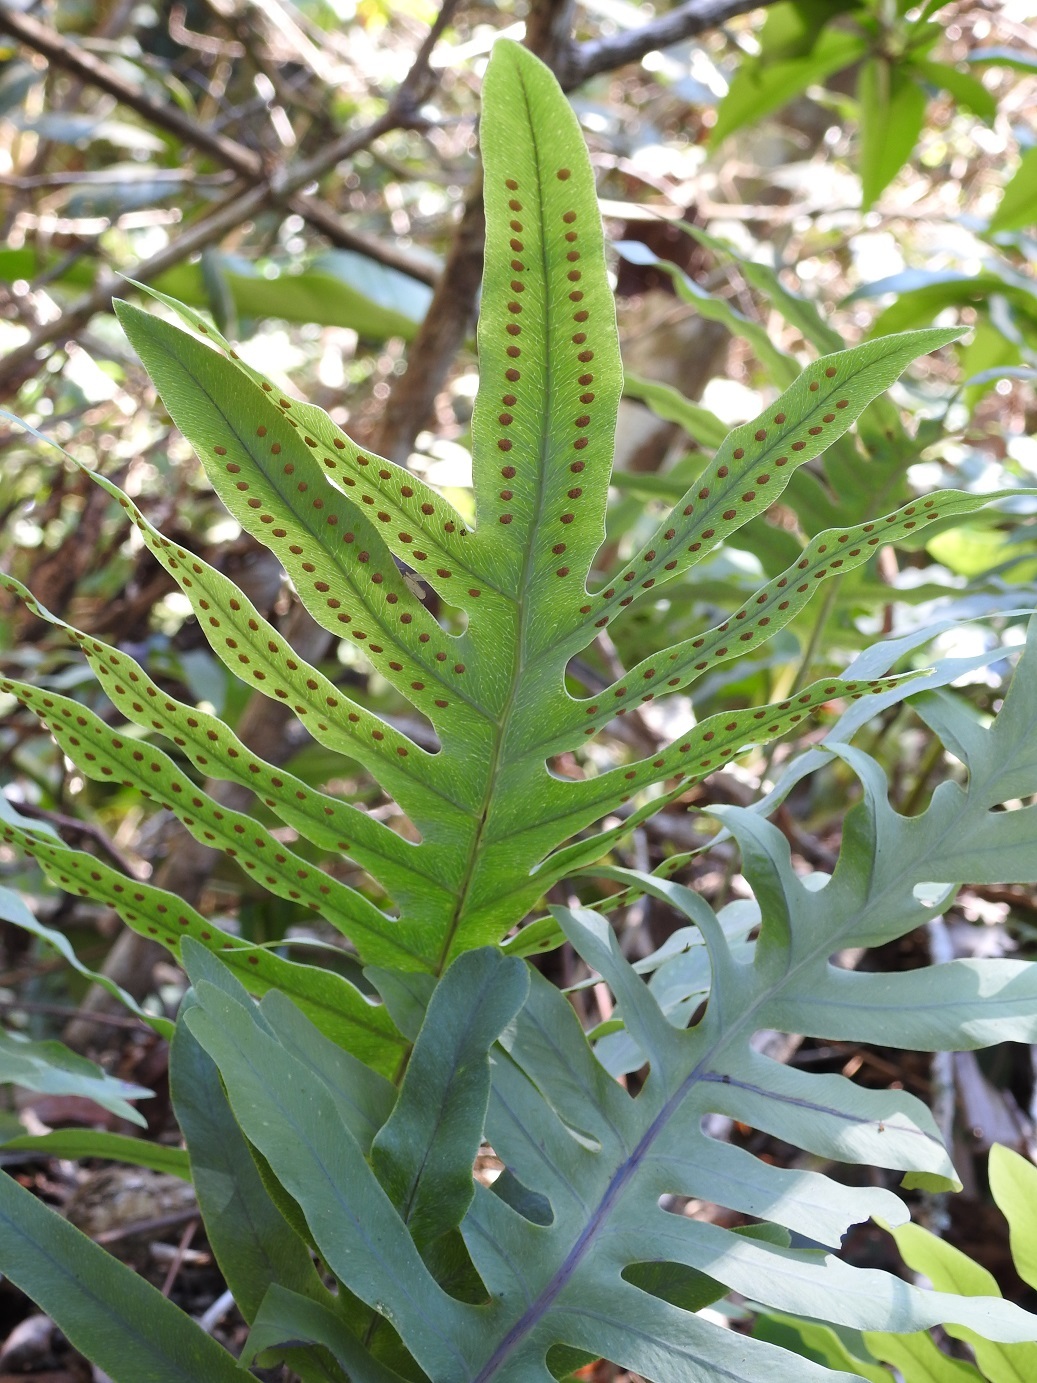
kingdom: Plantae
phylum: Tracheophyta
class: Polypodiopsida
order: Polypodiales
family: Polypodiaceae
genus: Phlebodium
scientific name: Phlebodium pseudoaureum
